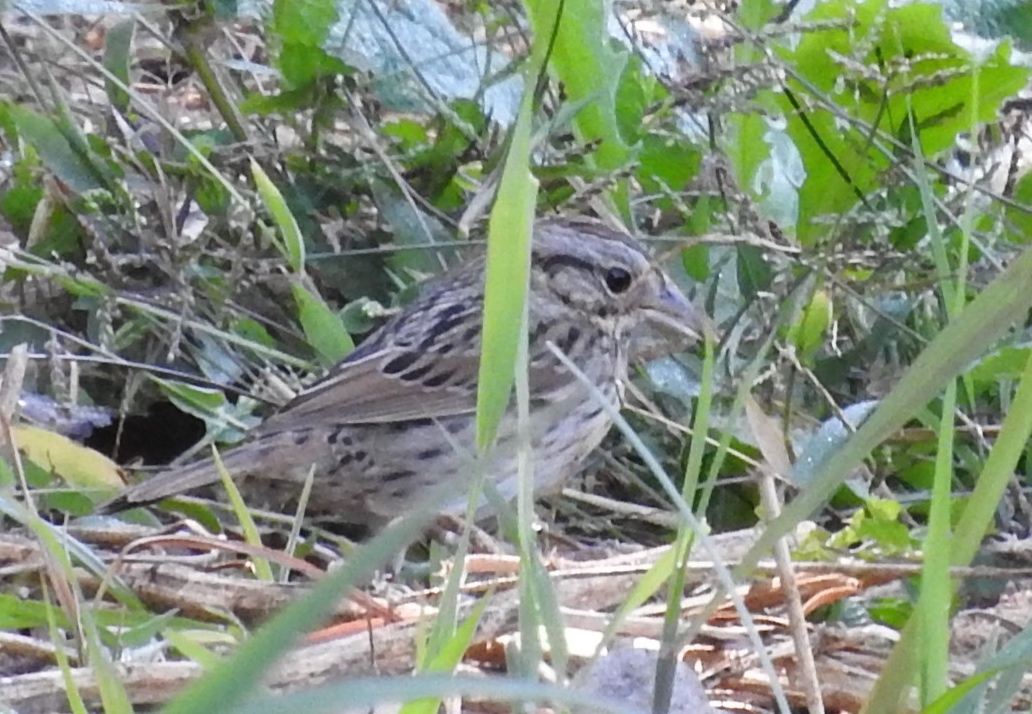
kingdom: Animalia
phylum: Chordata
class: Aves
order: Passeriformes
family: Passerellidae
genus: Melospiza
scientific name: Melospiza lincolnii
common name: Lincoln's sparrow
